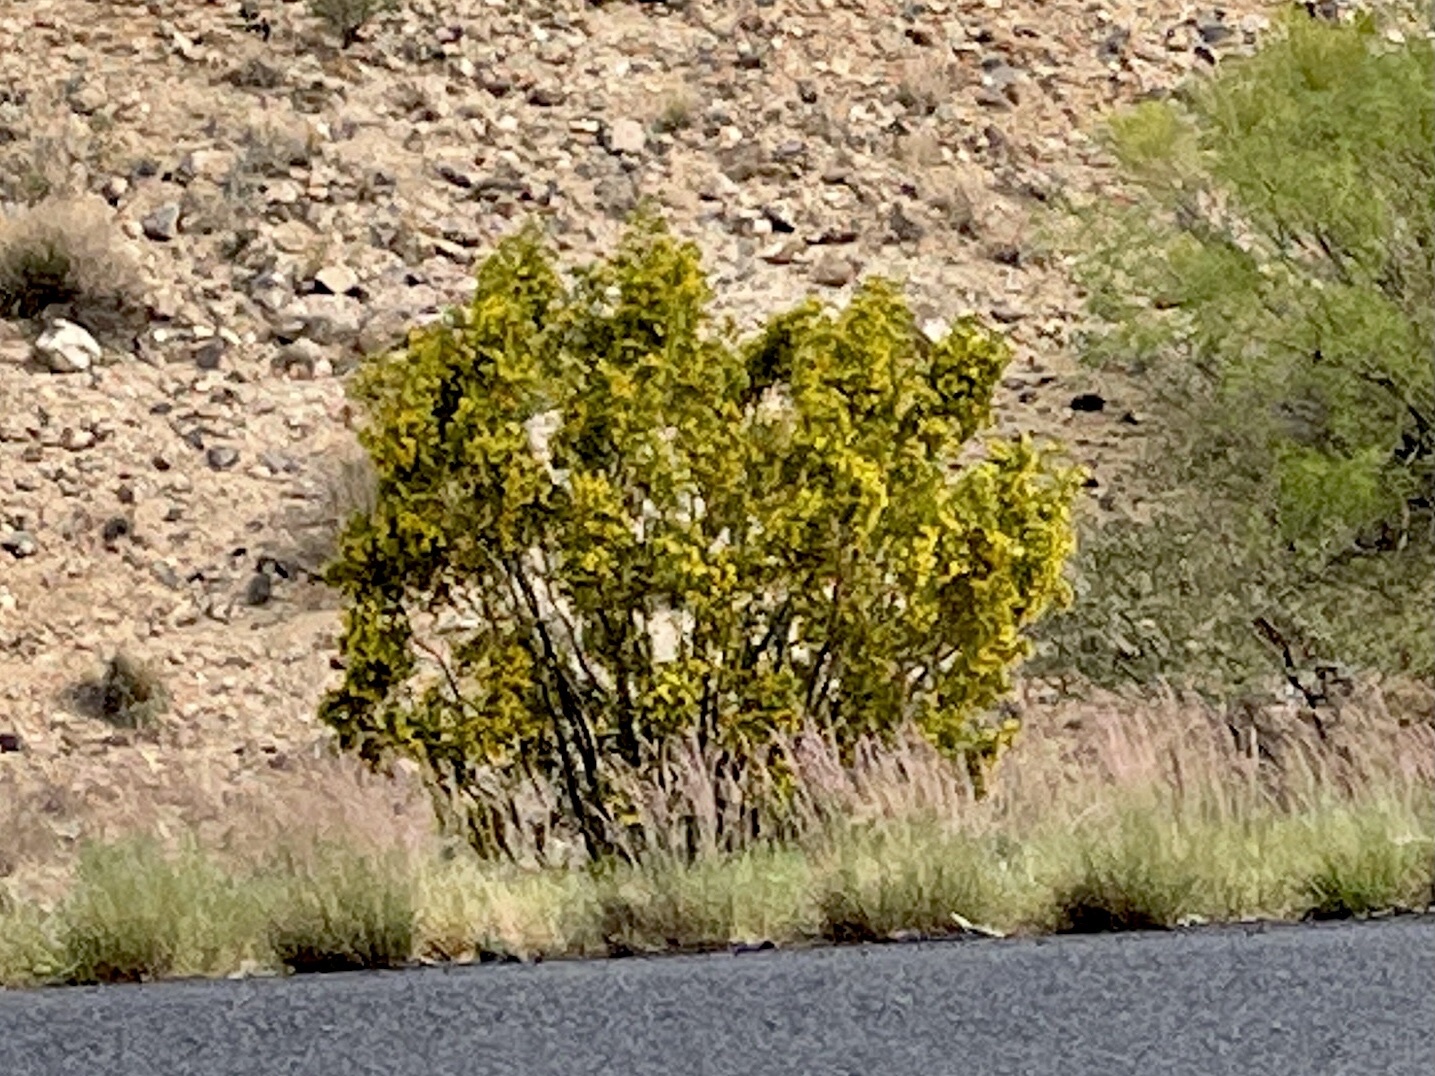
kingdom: Plantae
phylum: Tracheophyta
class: Magnoliopsida
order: Zygophyllales
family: Zygophyllaceae
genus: Larrea
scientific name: Larrea tridentata
